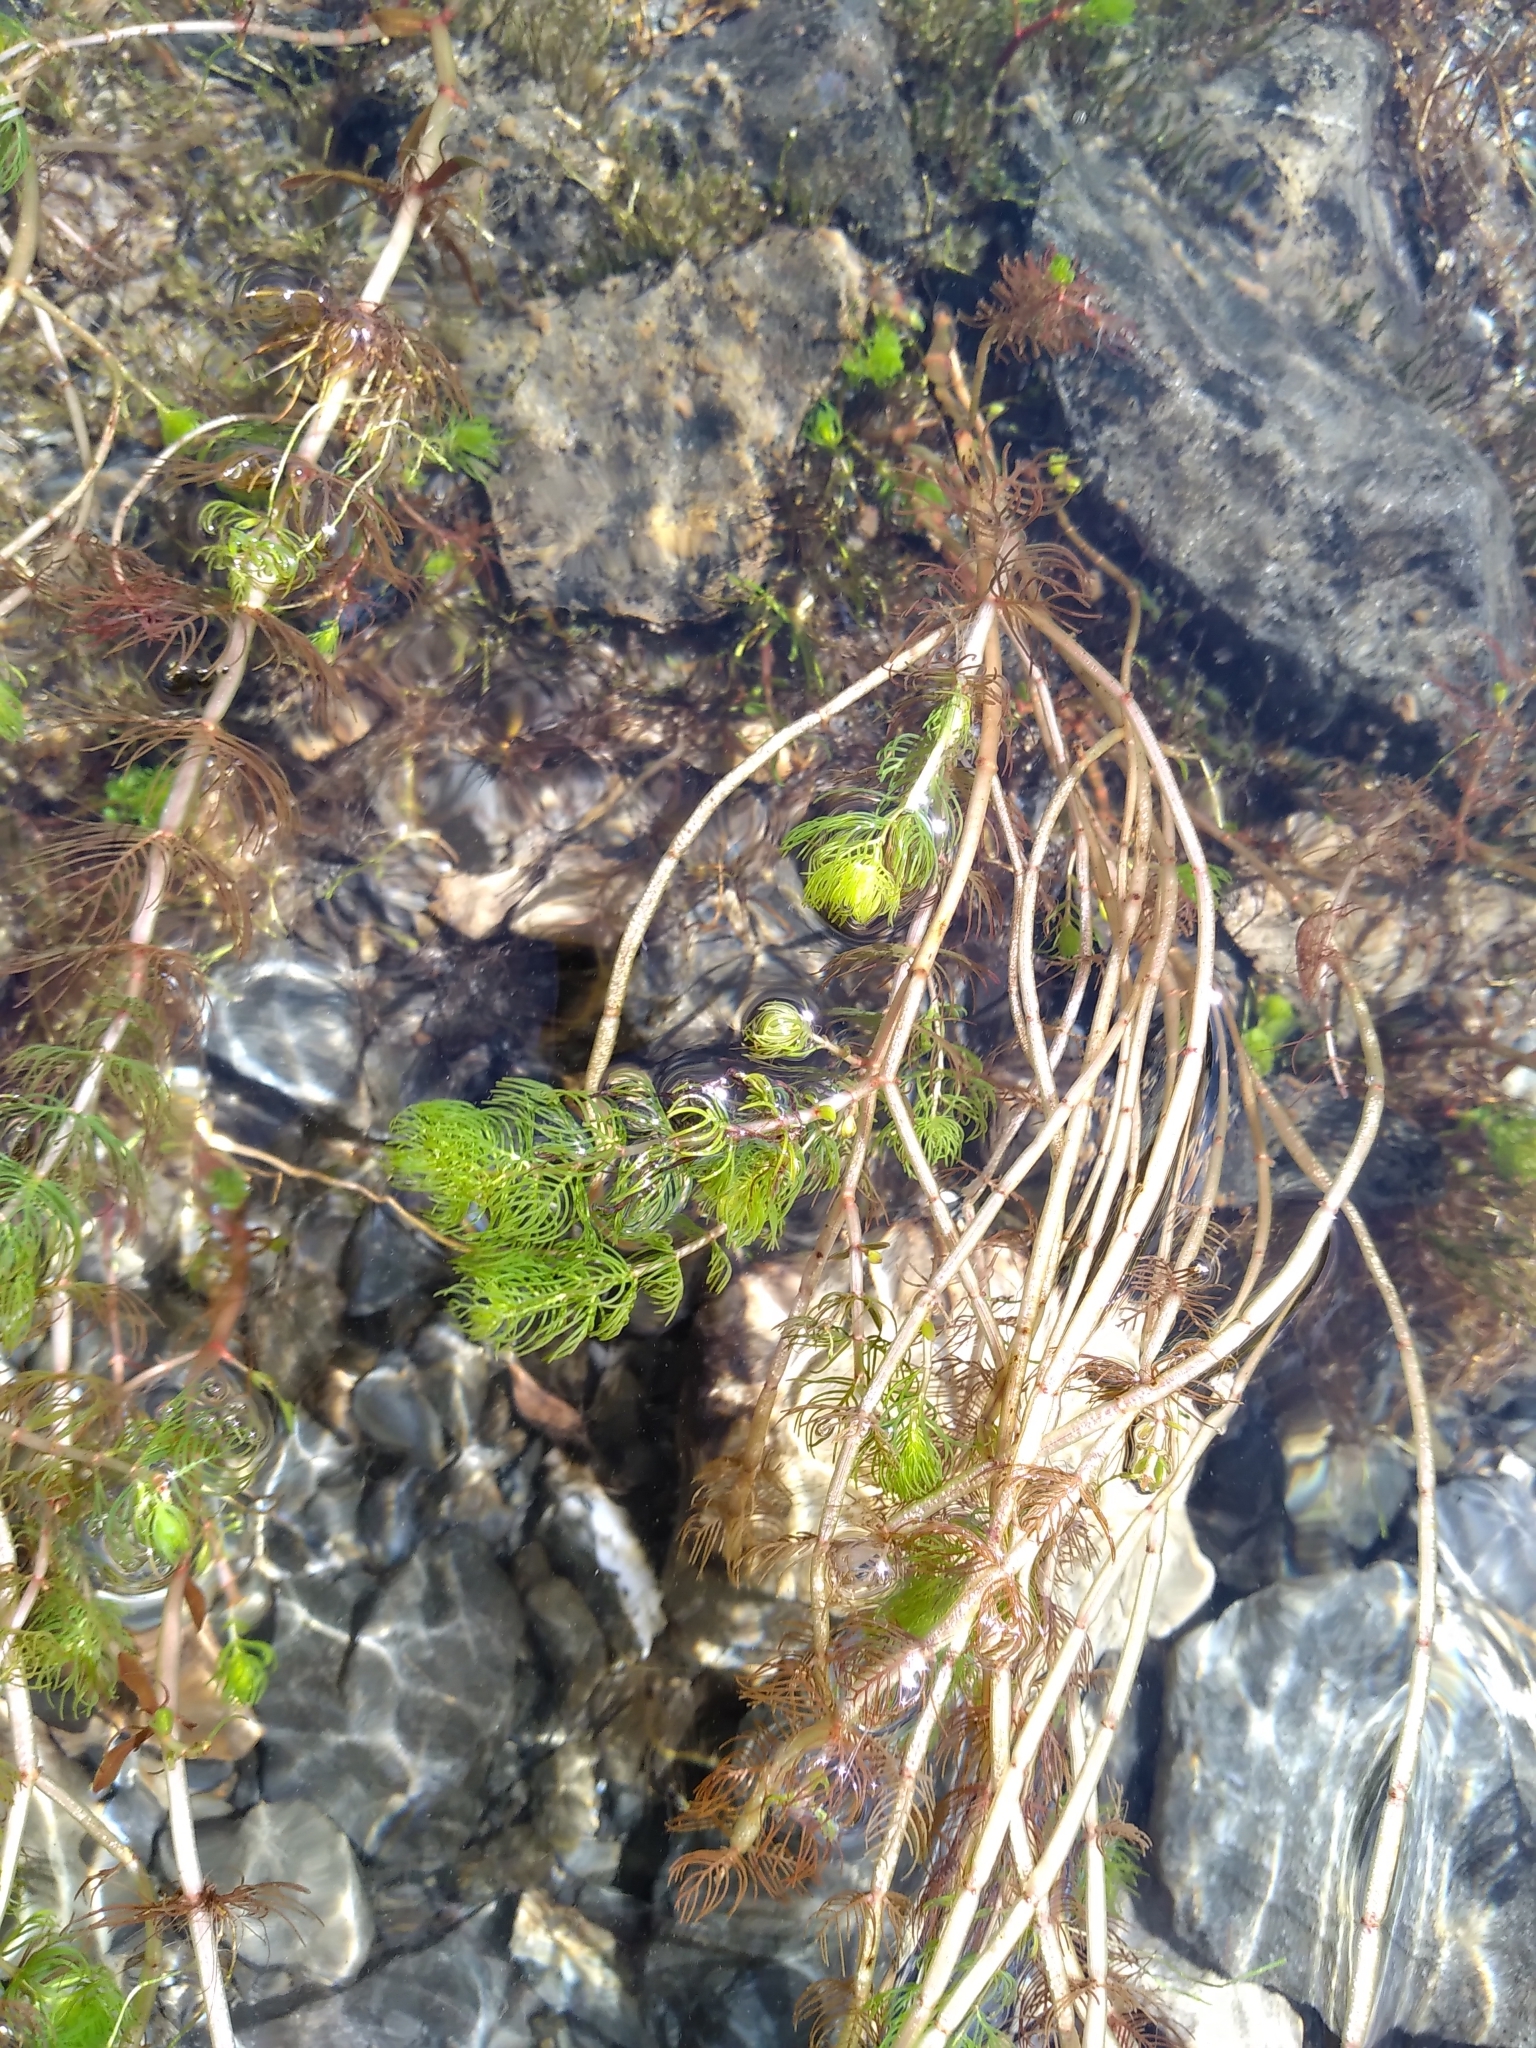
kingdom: Plantae
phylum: Tracheophyta
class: Magnoliopsida
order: Saxifragales
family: Haloragaceae
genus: Myriophyllum
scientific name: Myriophyllum triphyllum
